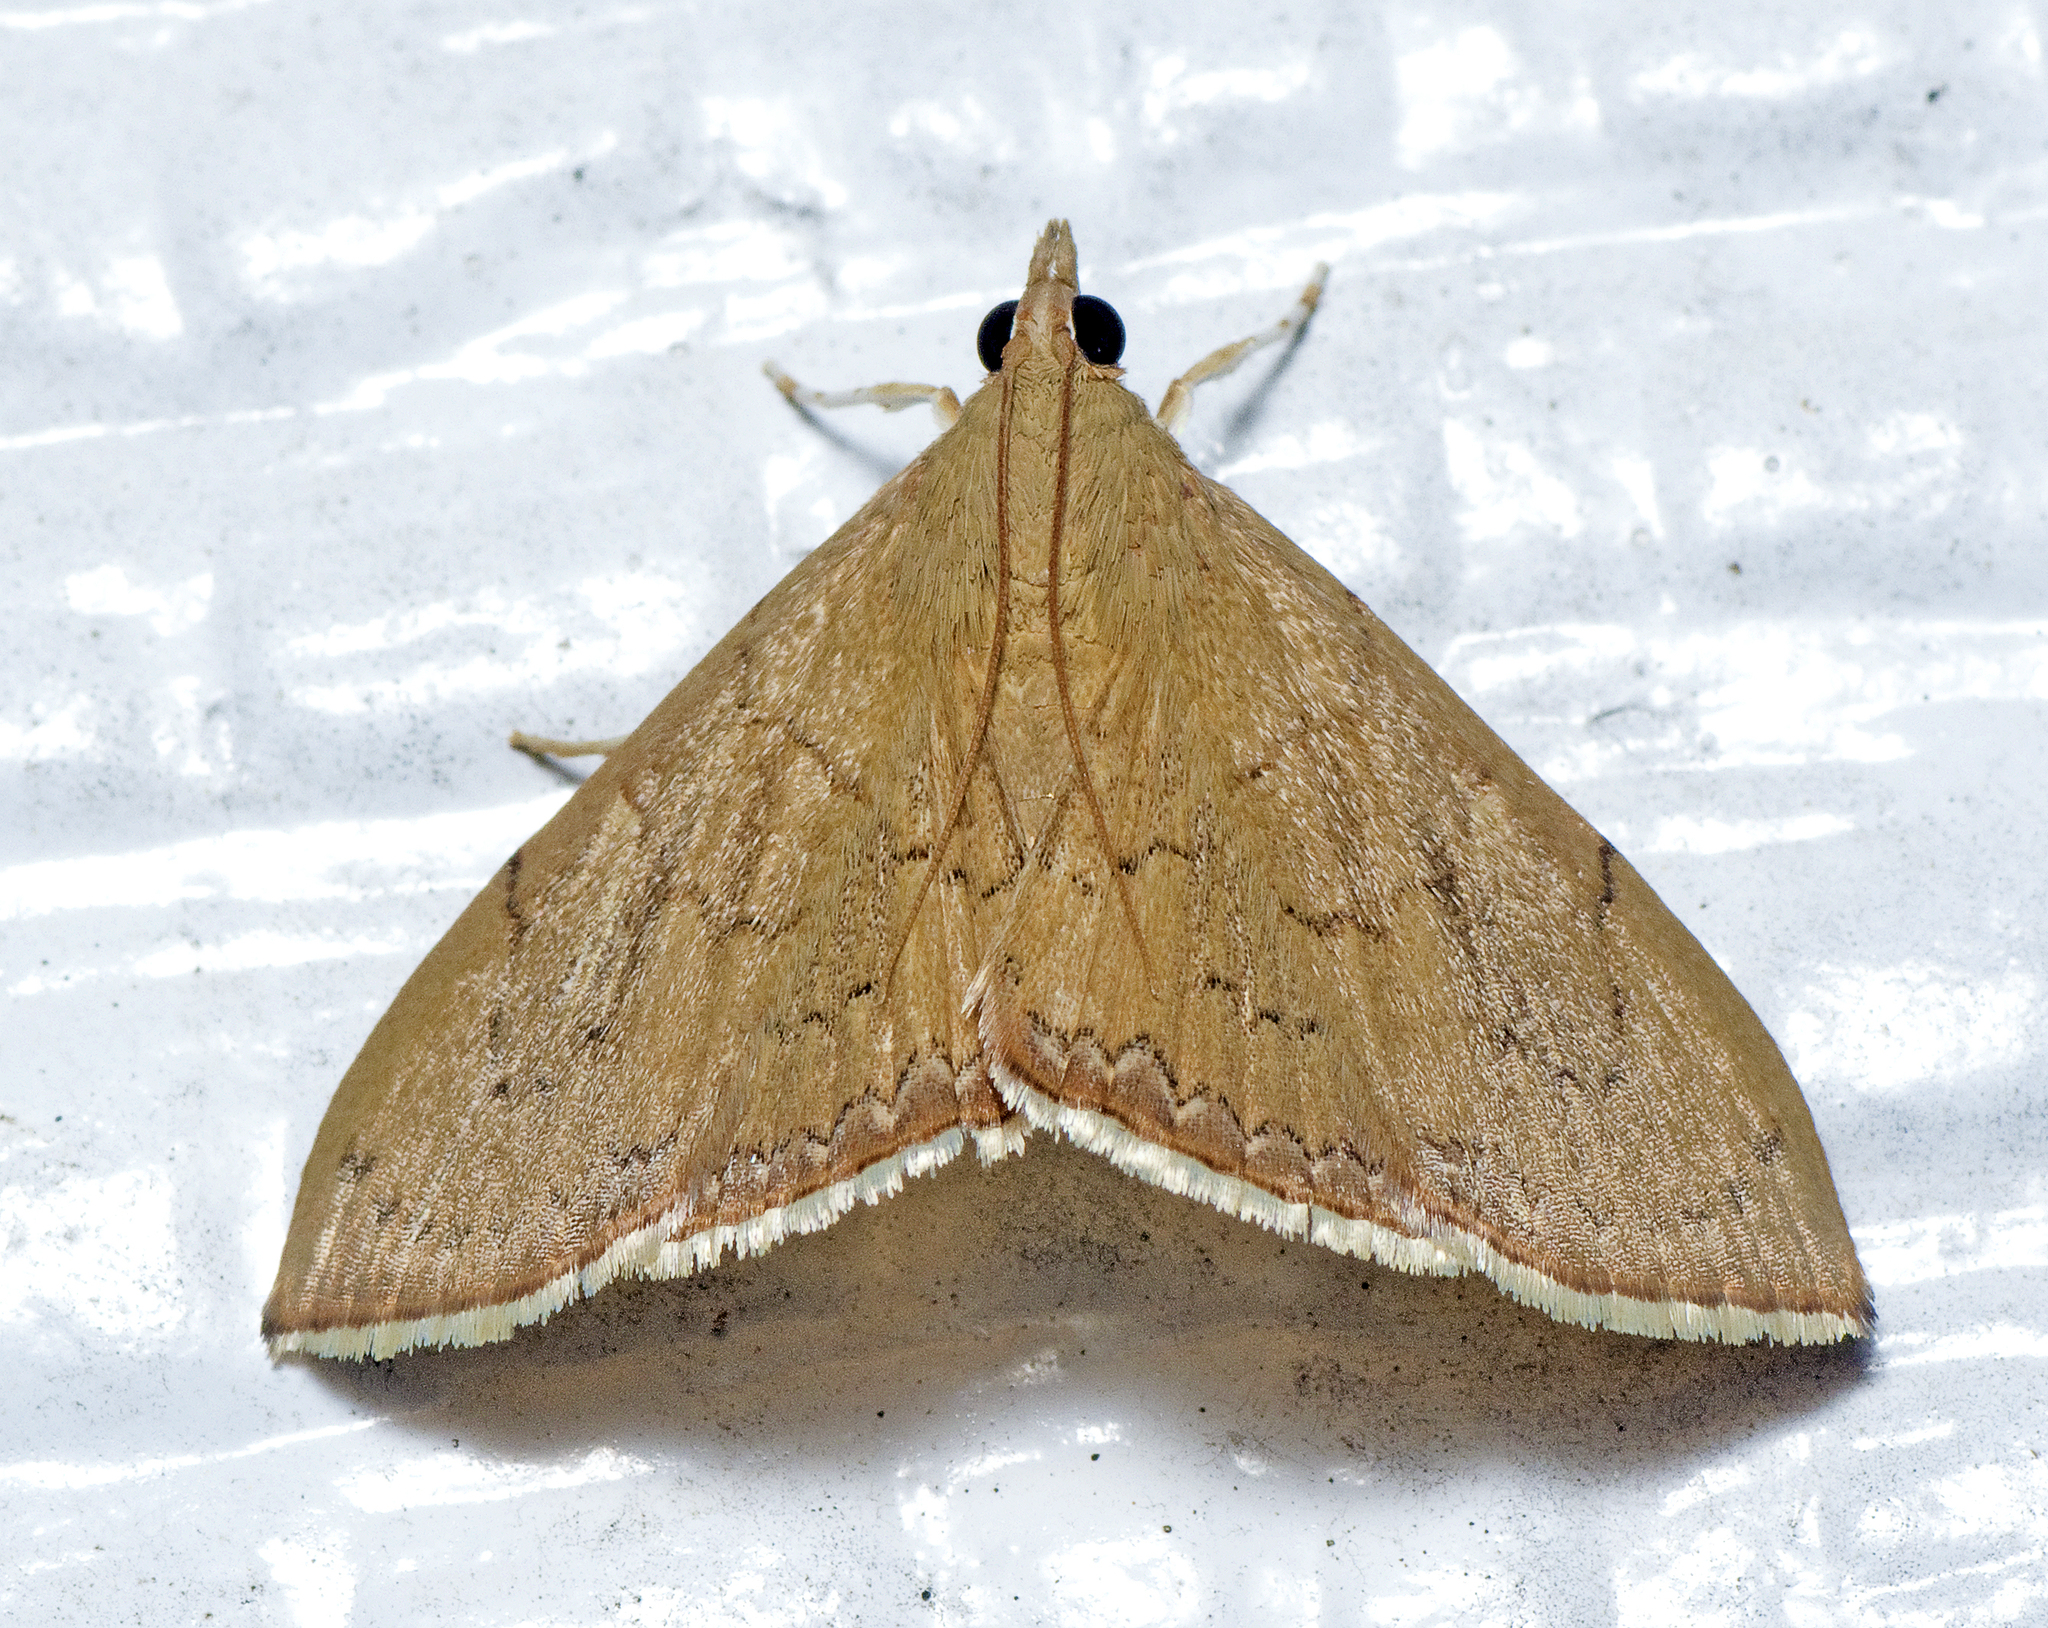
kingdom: Animalia
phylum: Arthropoda
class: Insecta
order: Lepidoptera
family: Crambidae
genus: Hyalobathra
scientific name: Hyalobathra crenulata
